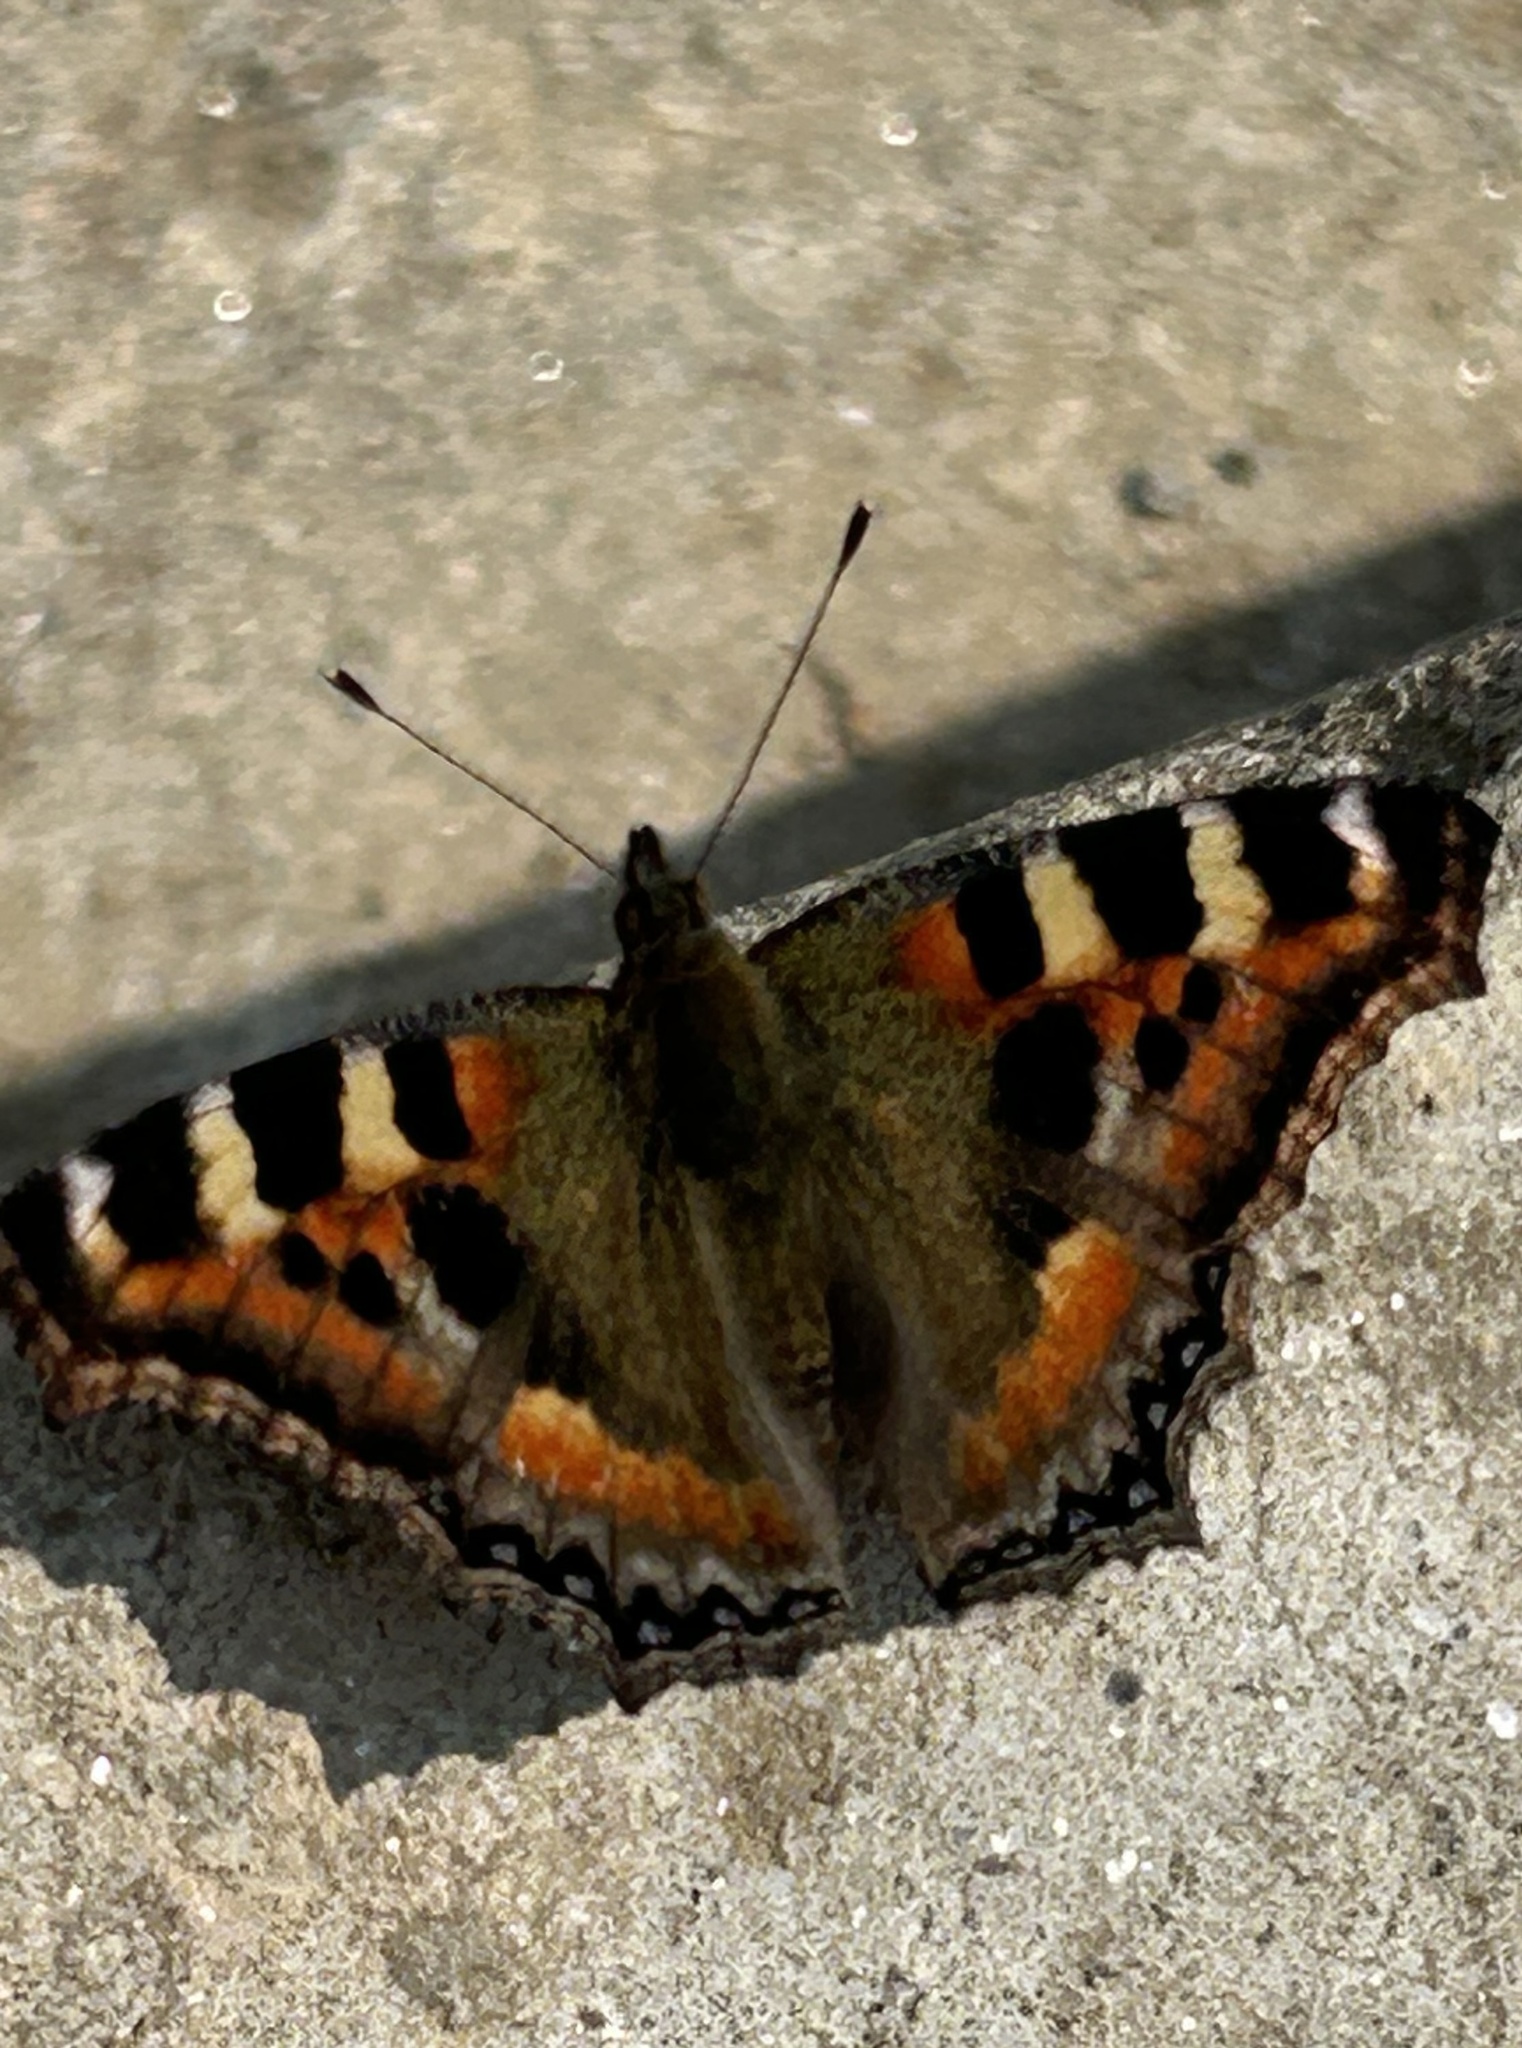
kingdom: Animalia
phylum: Arthropoda
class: Insecta
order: Lepidoptera
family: Nymphalidae
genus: Aglais
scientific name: Aglais caschmirensis
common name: Indian tortoiseshell
